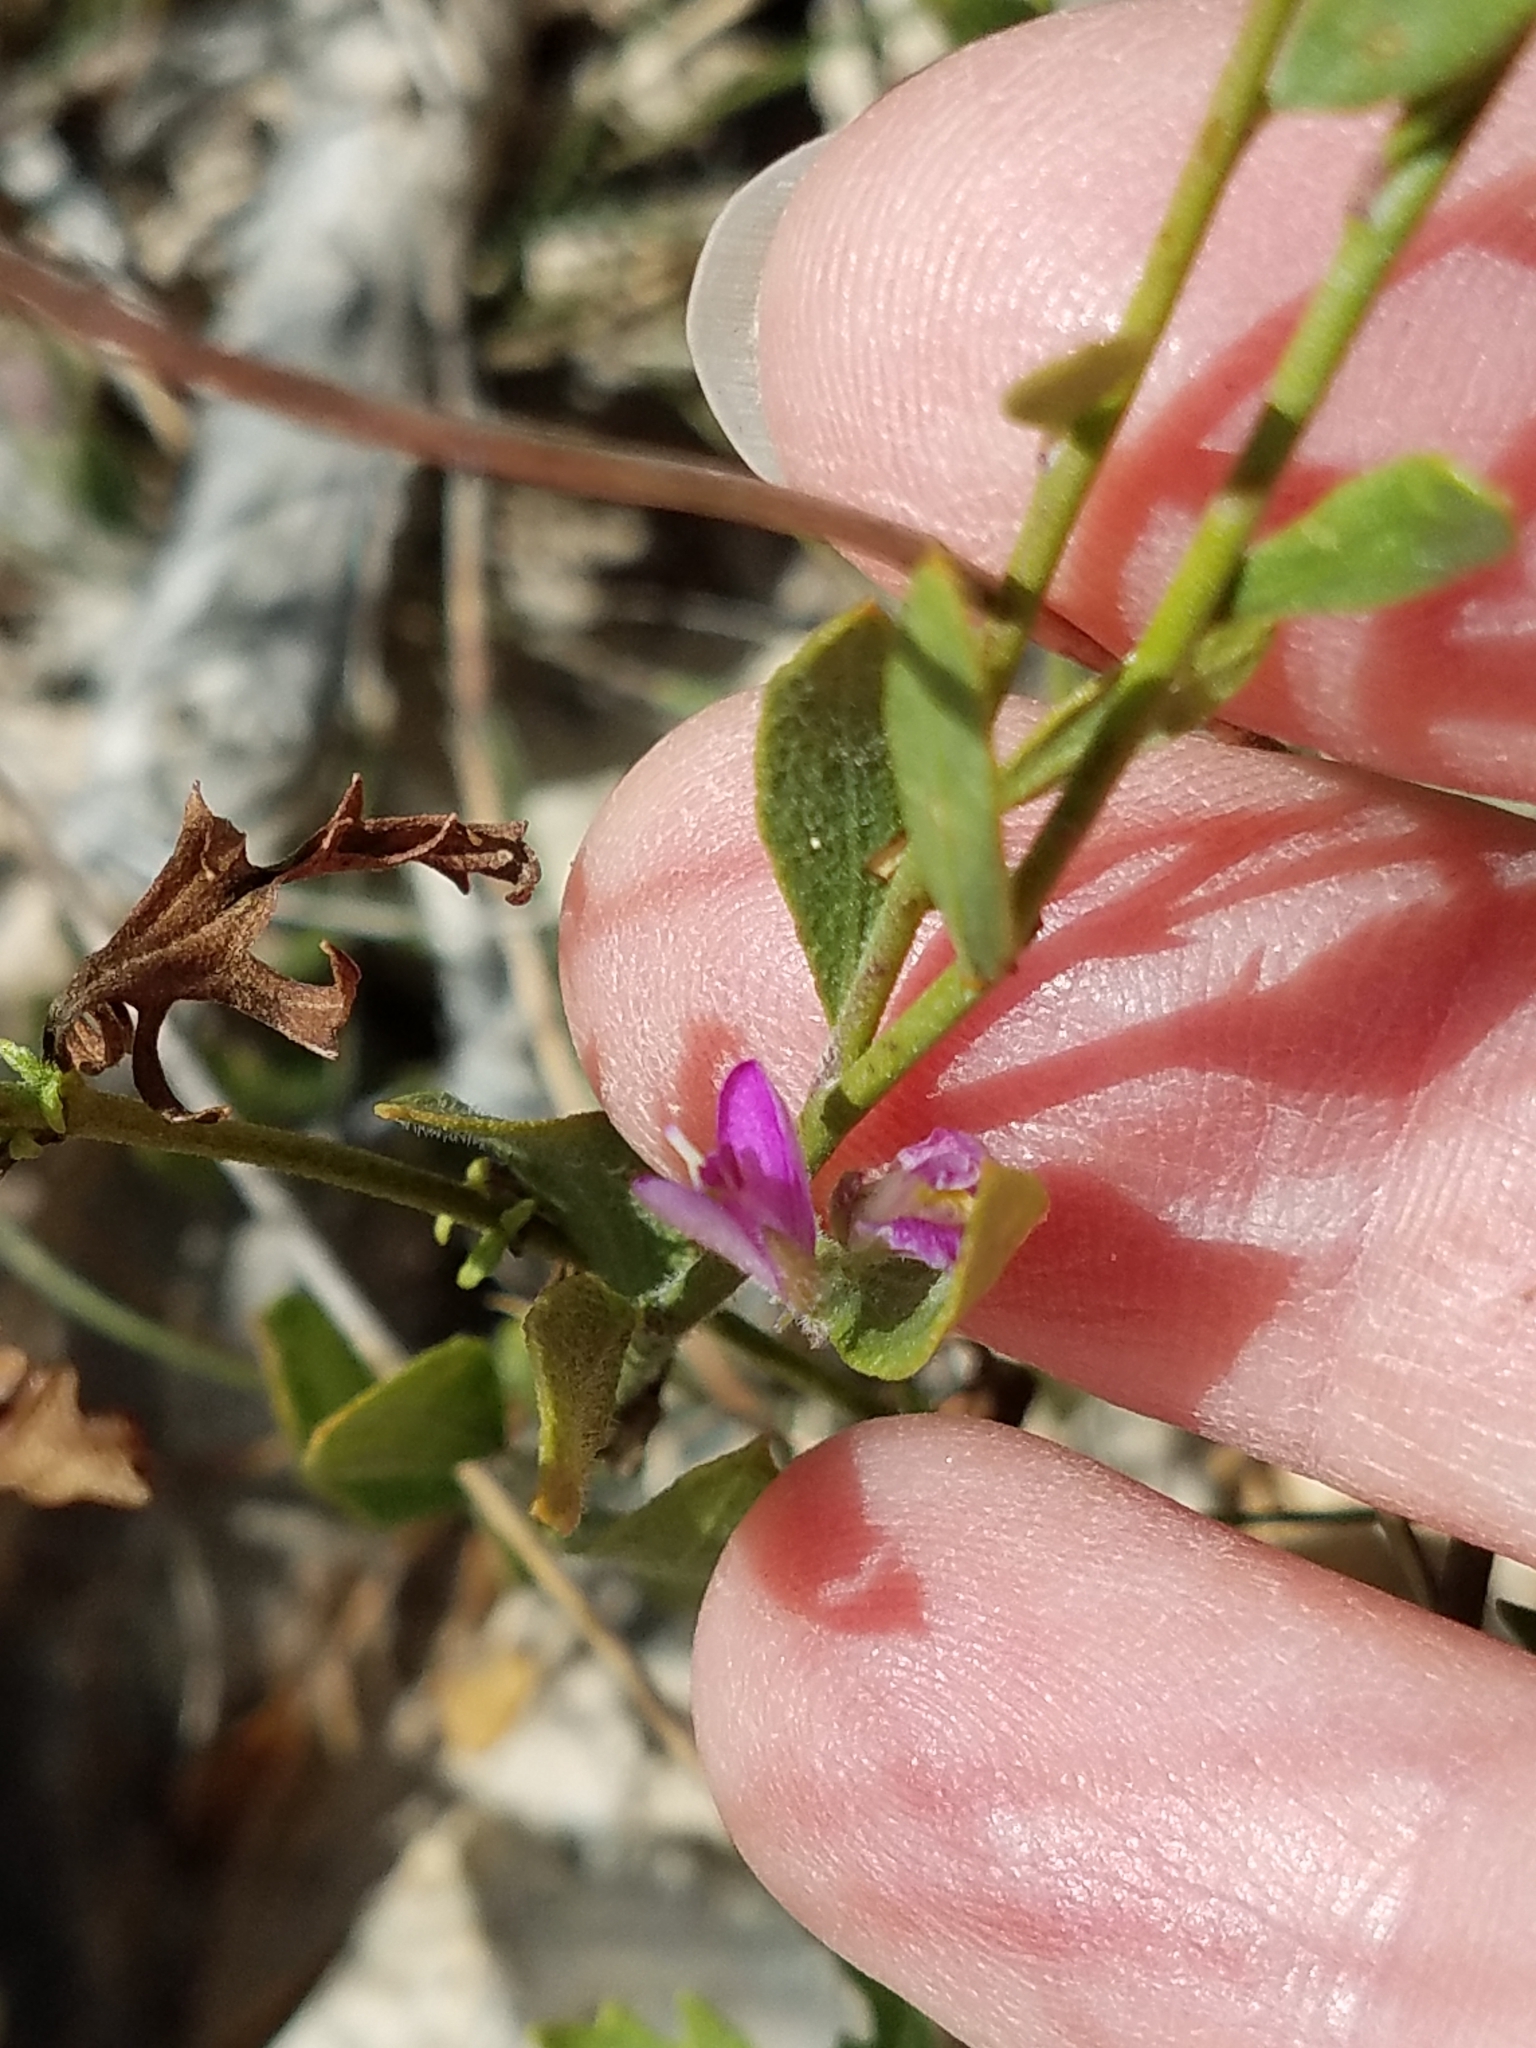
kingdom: Plantae
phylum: Tracheophyta
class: Magnoliopsida
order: Fabales
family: Polygalaceae
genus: Rhinotropis
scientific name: Rhinotropis lindheimeri
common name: Shrubby milkwort
